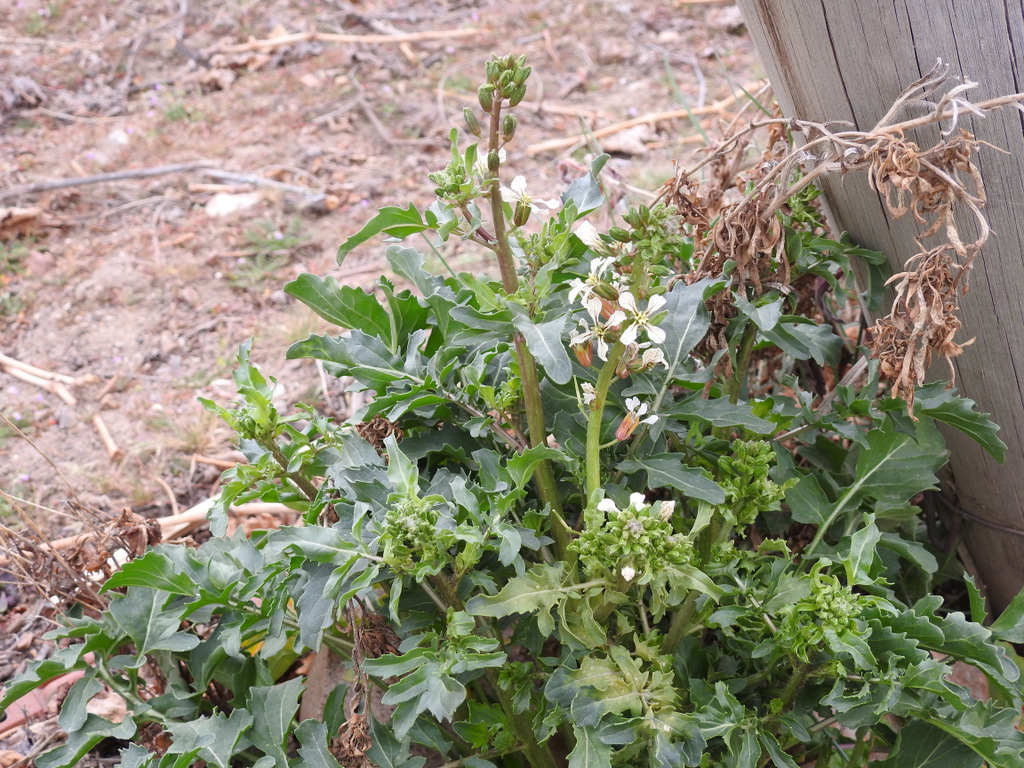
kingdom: Plantae
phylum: Tracheophyta
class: Magnoliopsida
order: Brassicales
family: Brassicaceae
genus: Eruca
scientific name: Eruca vesicaria
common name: Garden rocket
